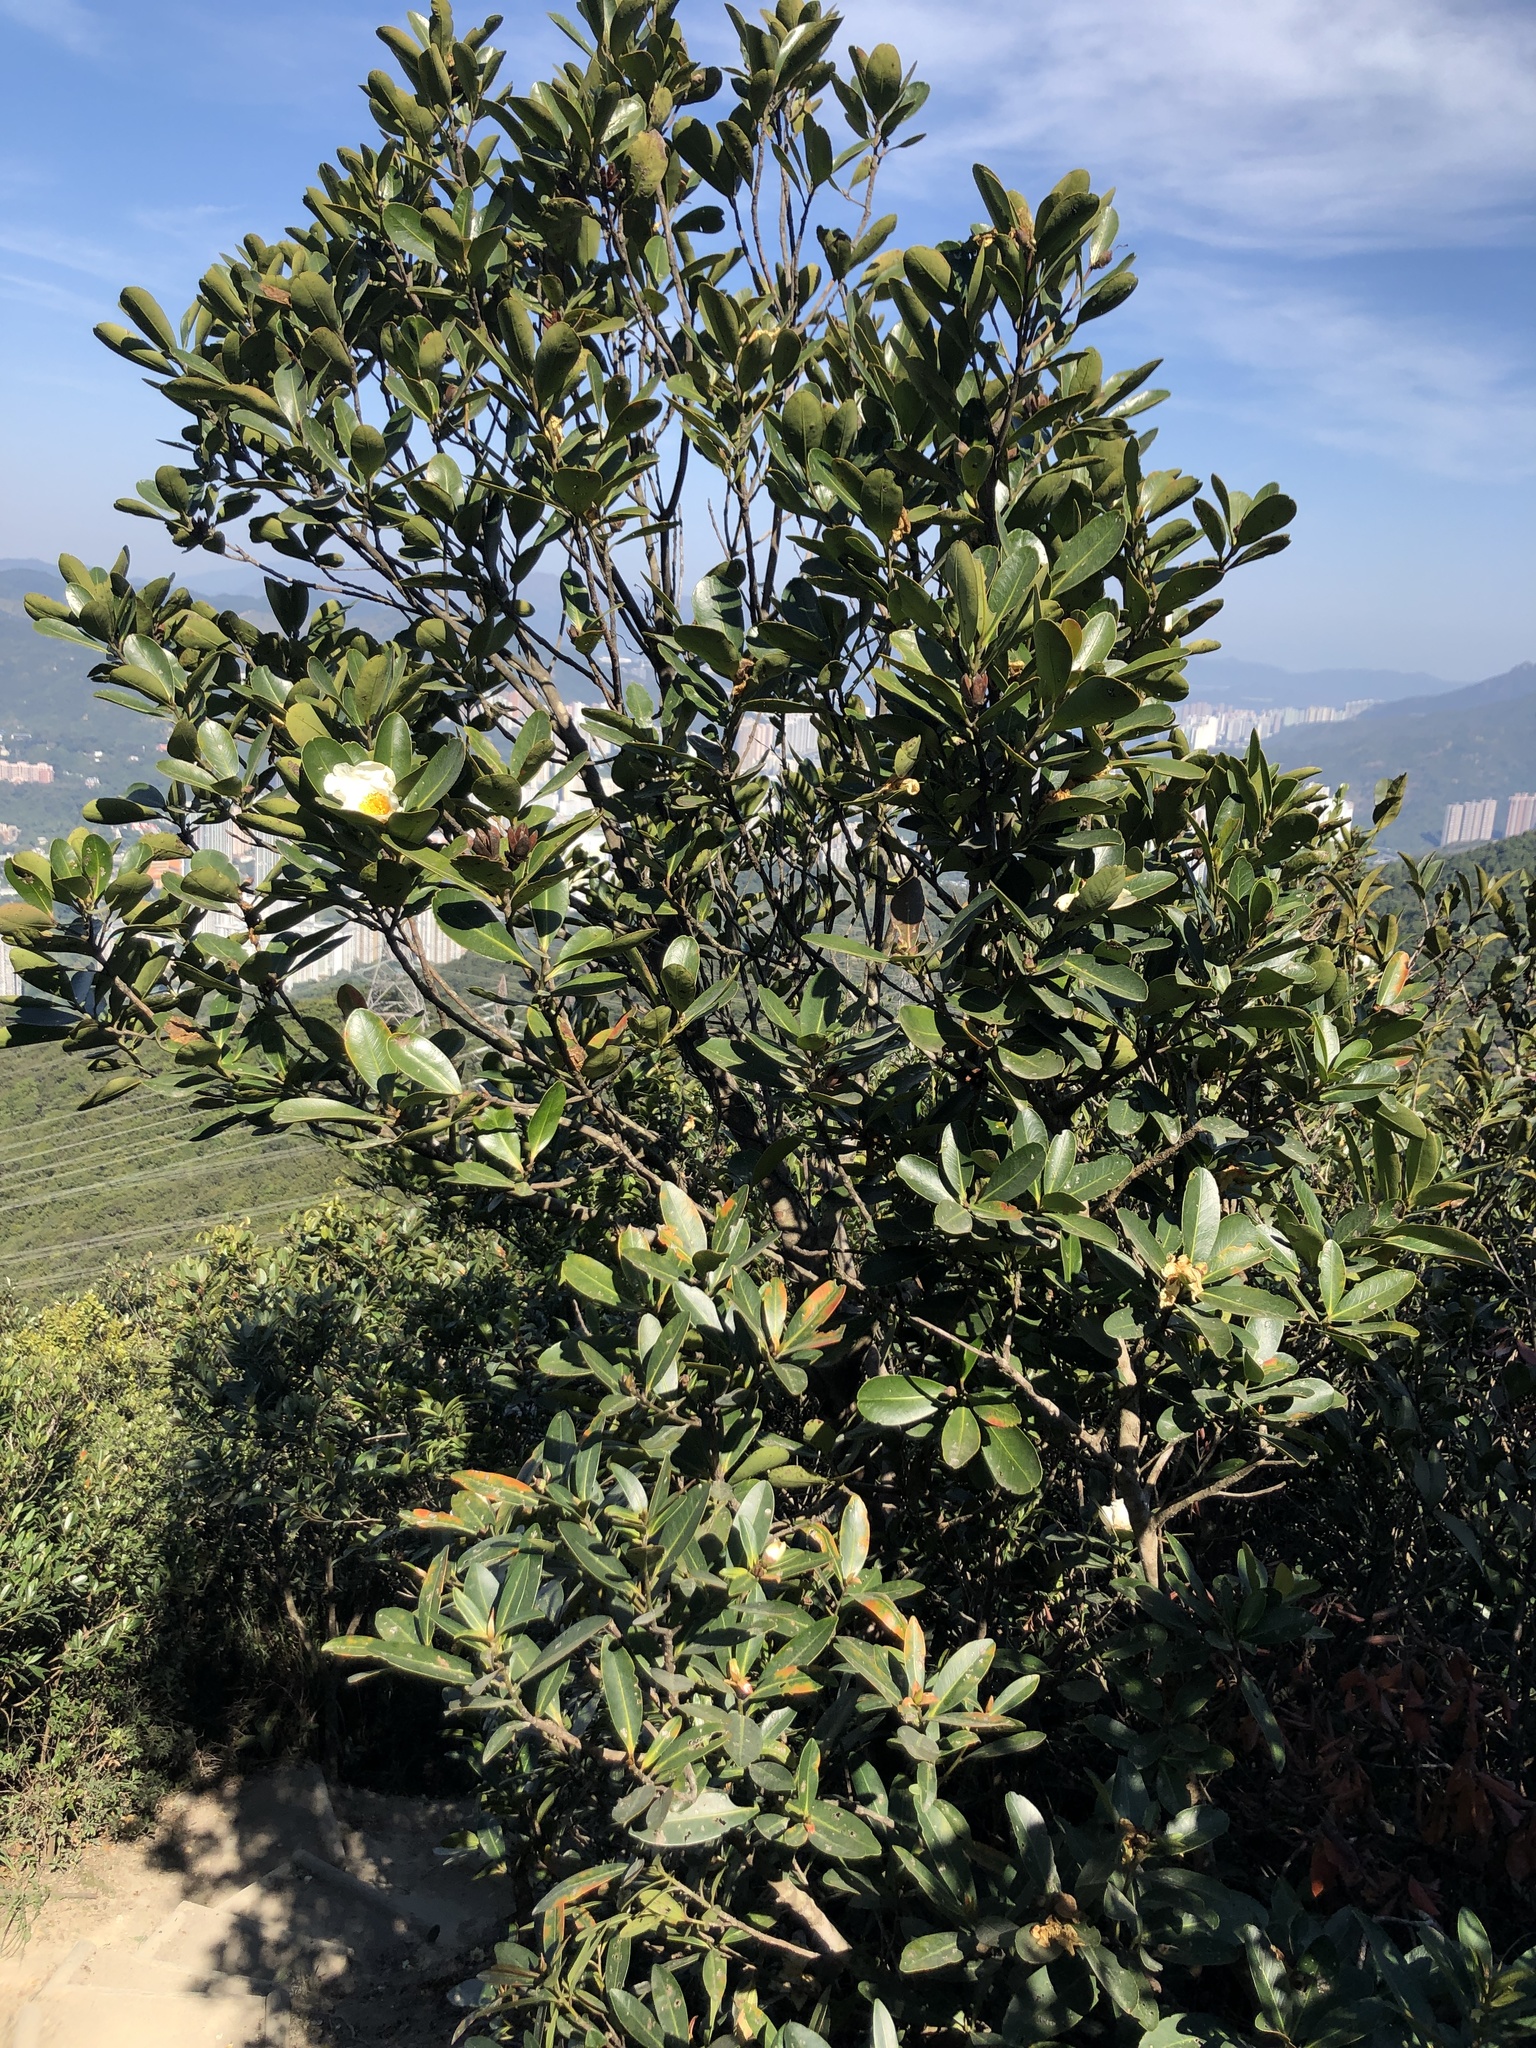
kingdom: Plantae
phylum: Tracheophyta
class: Magnoliopsida
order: Ericales
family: Theaceae
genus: Polyspora
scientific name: Polyspora axillaris
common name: Fried egg tree
